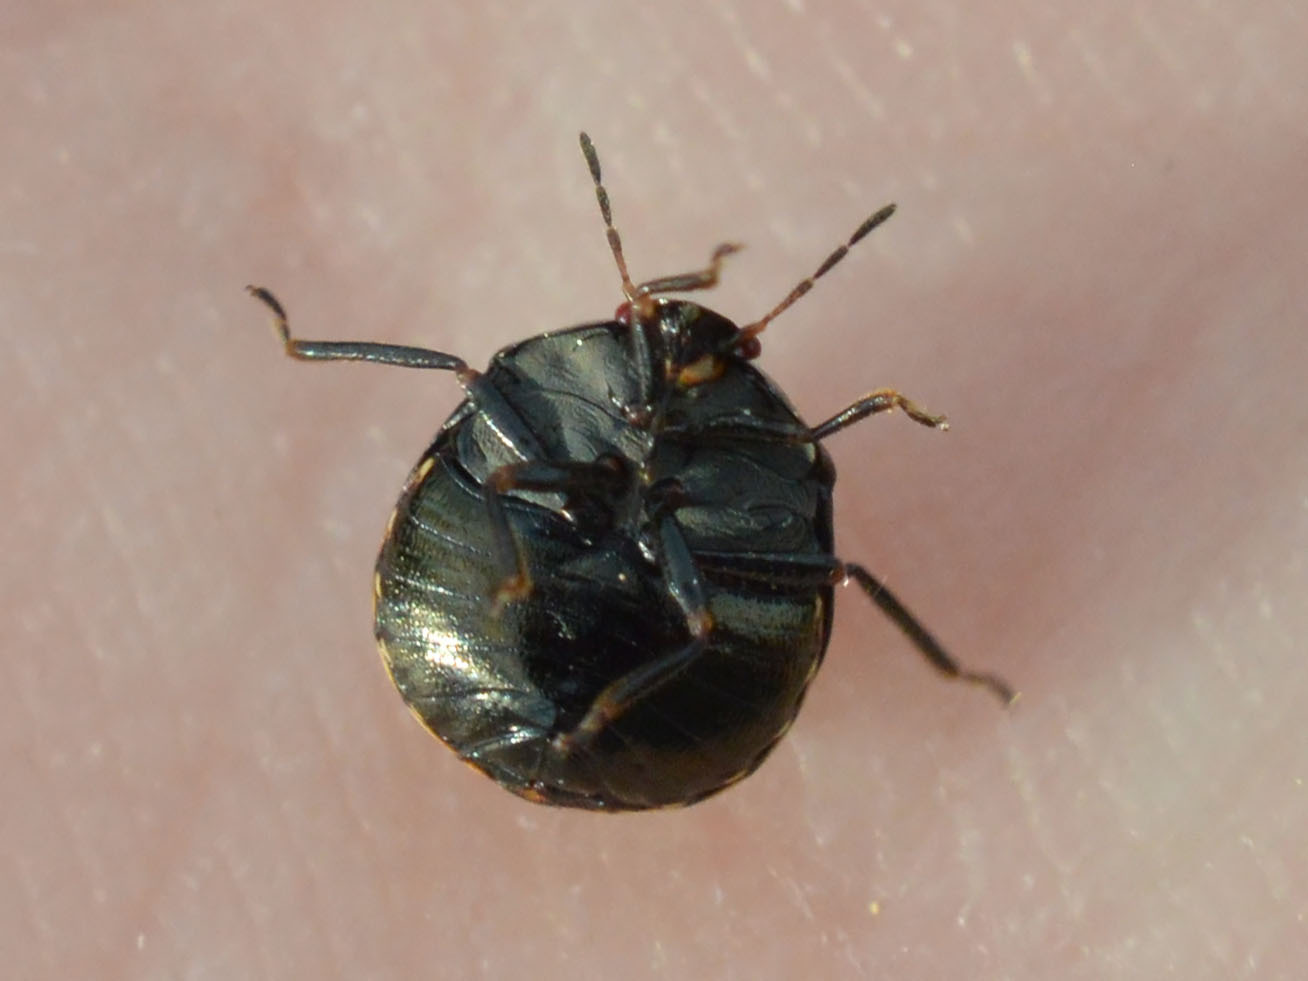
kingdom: Animalia
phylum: Arthropoda
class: Insecta
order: Hemiptera
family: Plataspidae
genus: Coptosoma
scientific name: Coptosoma scutellatum
